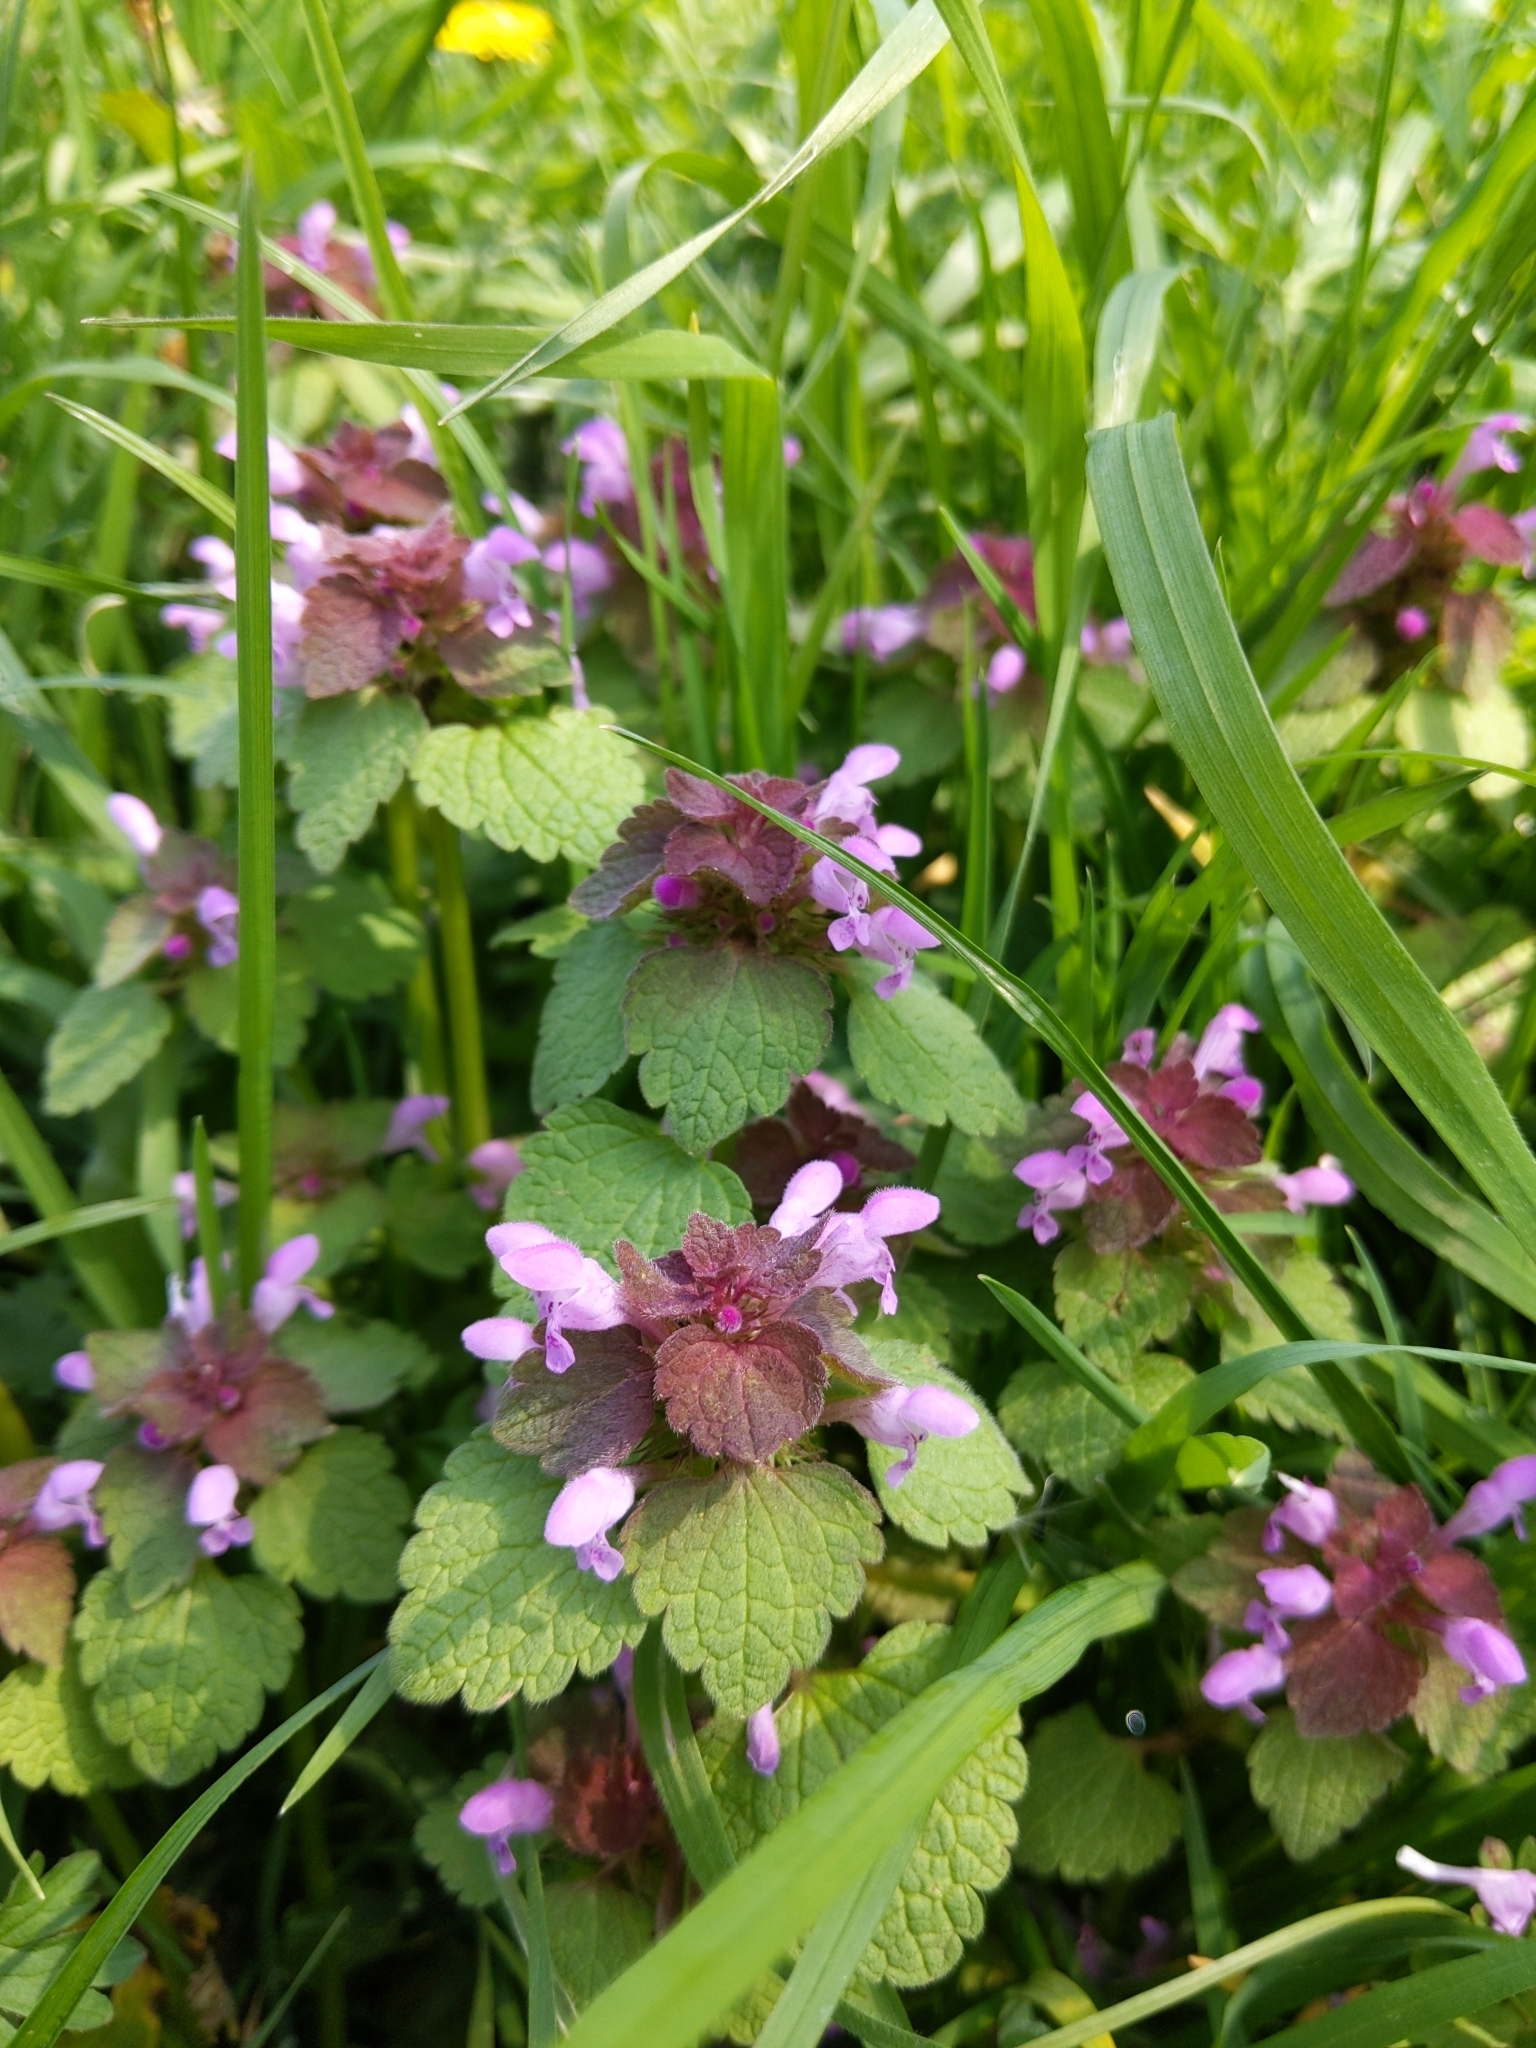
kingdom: Plantae
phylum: Tracheophyta
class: Magnoliopsida
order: Lamiales
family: Lamiaceae
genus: Lamium
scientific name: Lamium purpureum
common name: Red dead-nettle
